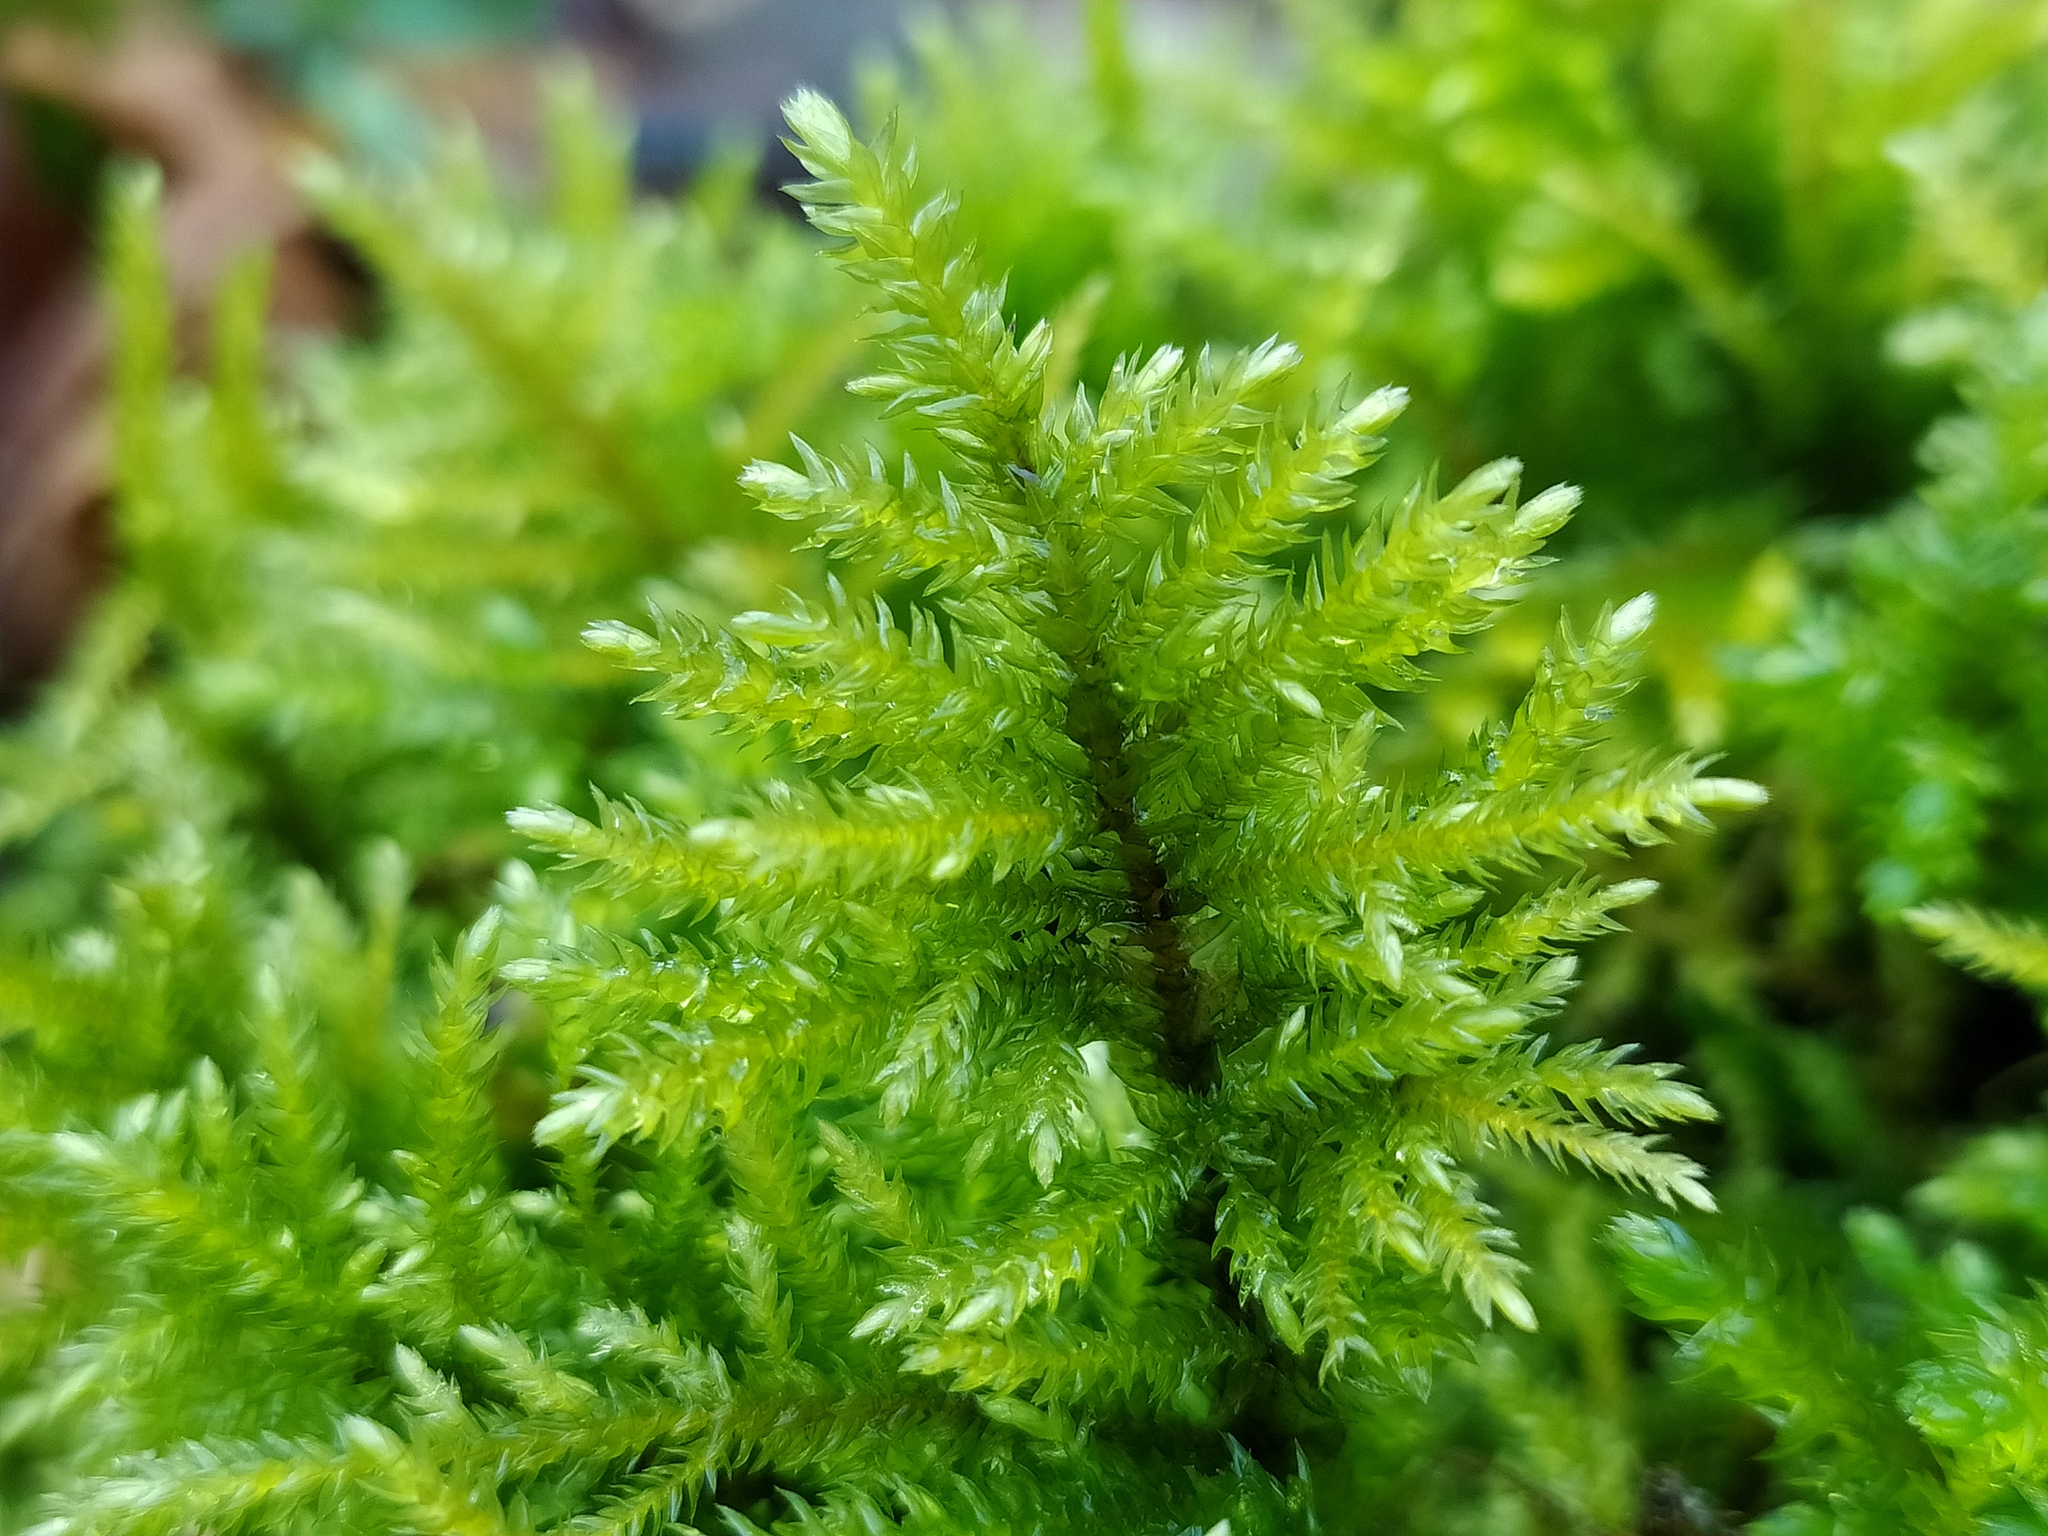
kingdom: Plantae
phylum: Bryophyta
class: Bryopsida
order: Hypnales
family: Neckeraceae
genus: Thamnobryum
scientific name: Thamnobryum alopecurum
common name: Fox-tail feather-moss
